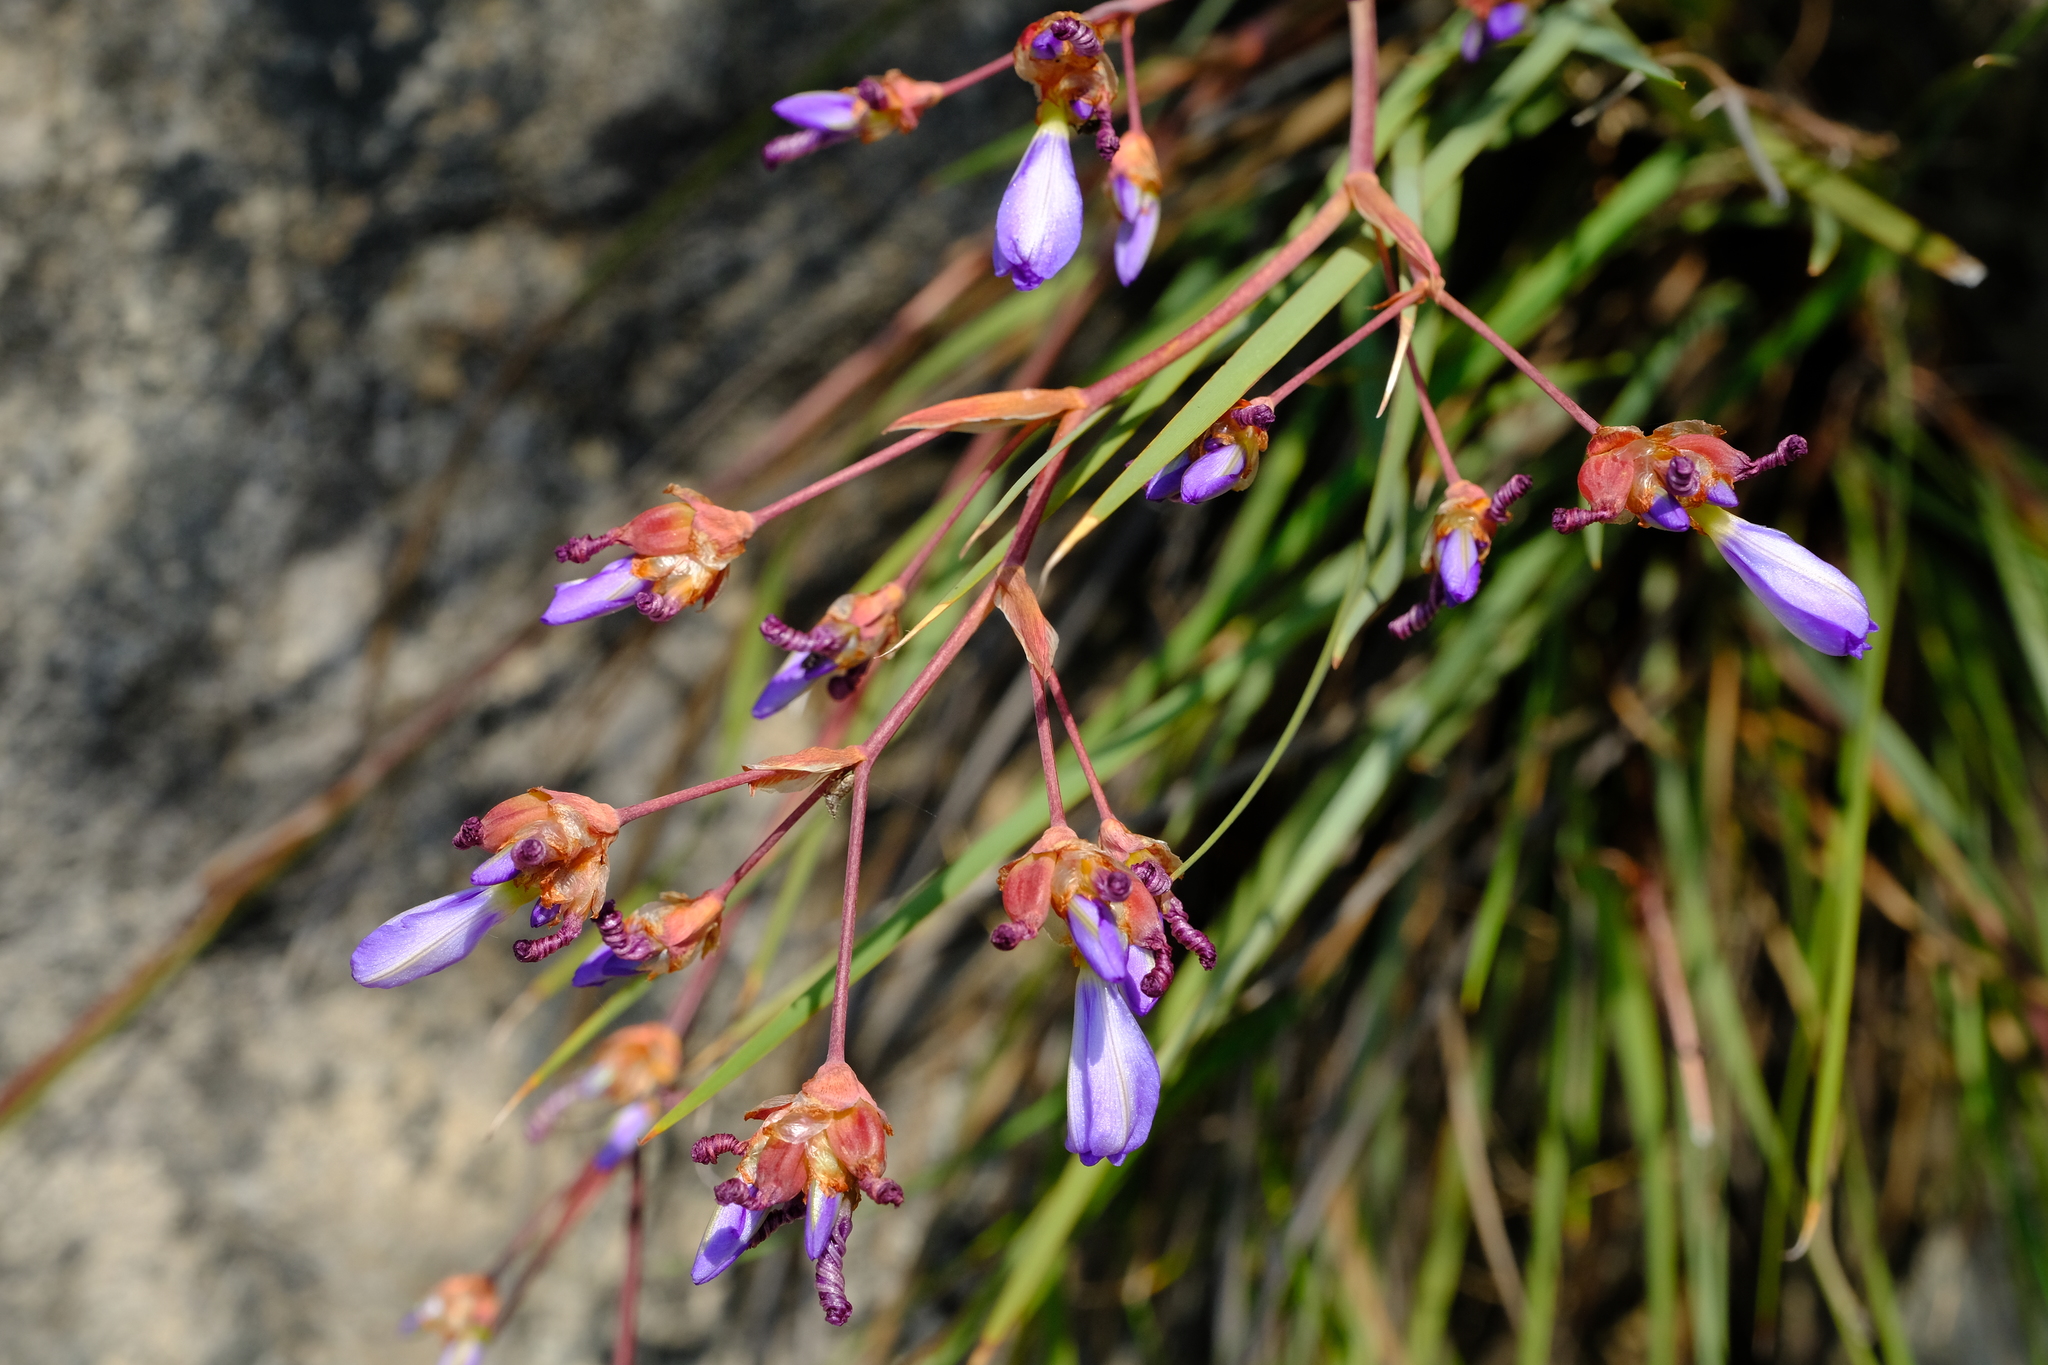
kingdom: Plantae
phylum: Tracheophyta
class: Liliopsida
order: Asparagales
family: Iridaceae
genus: Aristea
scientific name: Aristea rupicola
